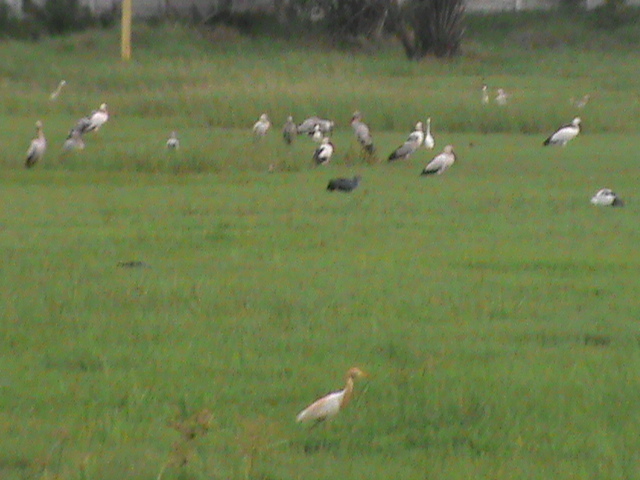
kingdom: Animalia
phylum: Chordata
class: Aves
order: Pelecaniformes
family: Ardeidae
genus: Bubulcus
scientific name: Bubulcus coromandus
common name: Eastern cattle egret
